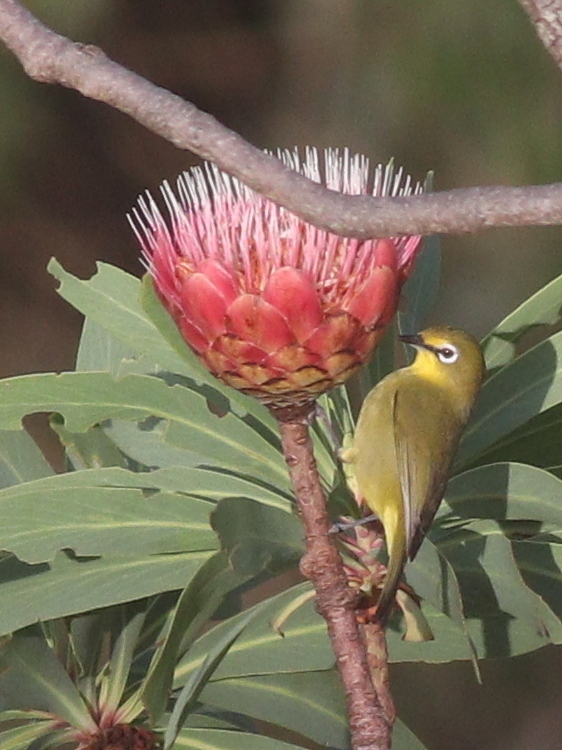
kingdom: Animalia
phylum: Chordata
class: Aves
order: Passeriformes
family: Zosteropidae
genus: Zosterops
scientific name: Zosterops virens
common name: Cape white-eye
